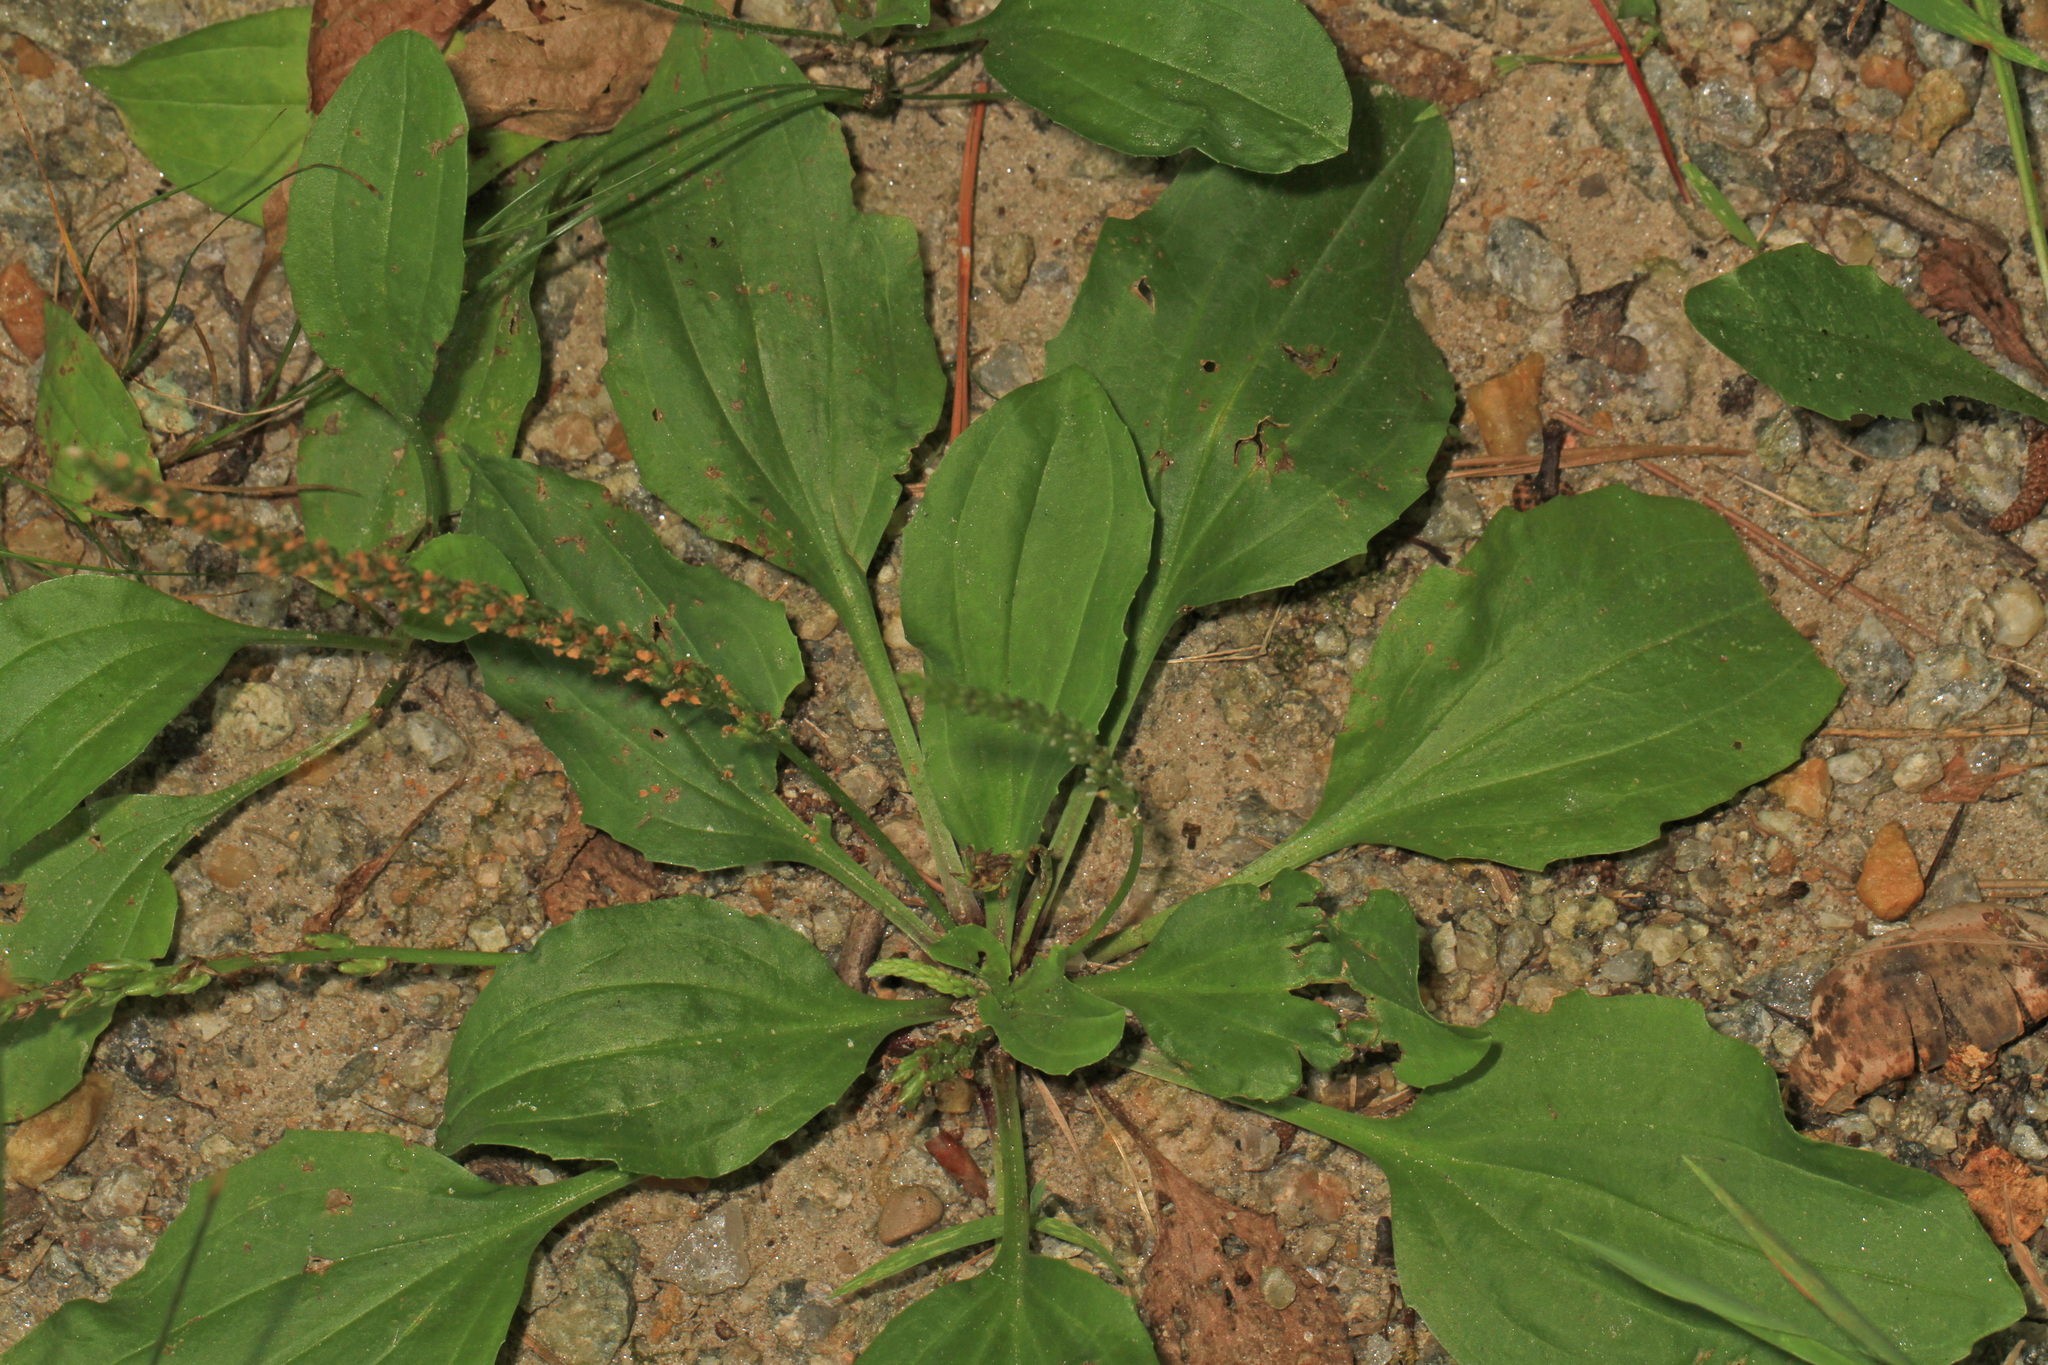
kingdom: Plantae
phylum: Tracheophyta
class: Magnoliopsida
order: Lamiales
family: Plantaginaceae
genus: Plantago
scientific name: Plantago rugelii
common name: American plantain
